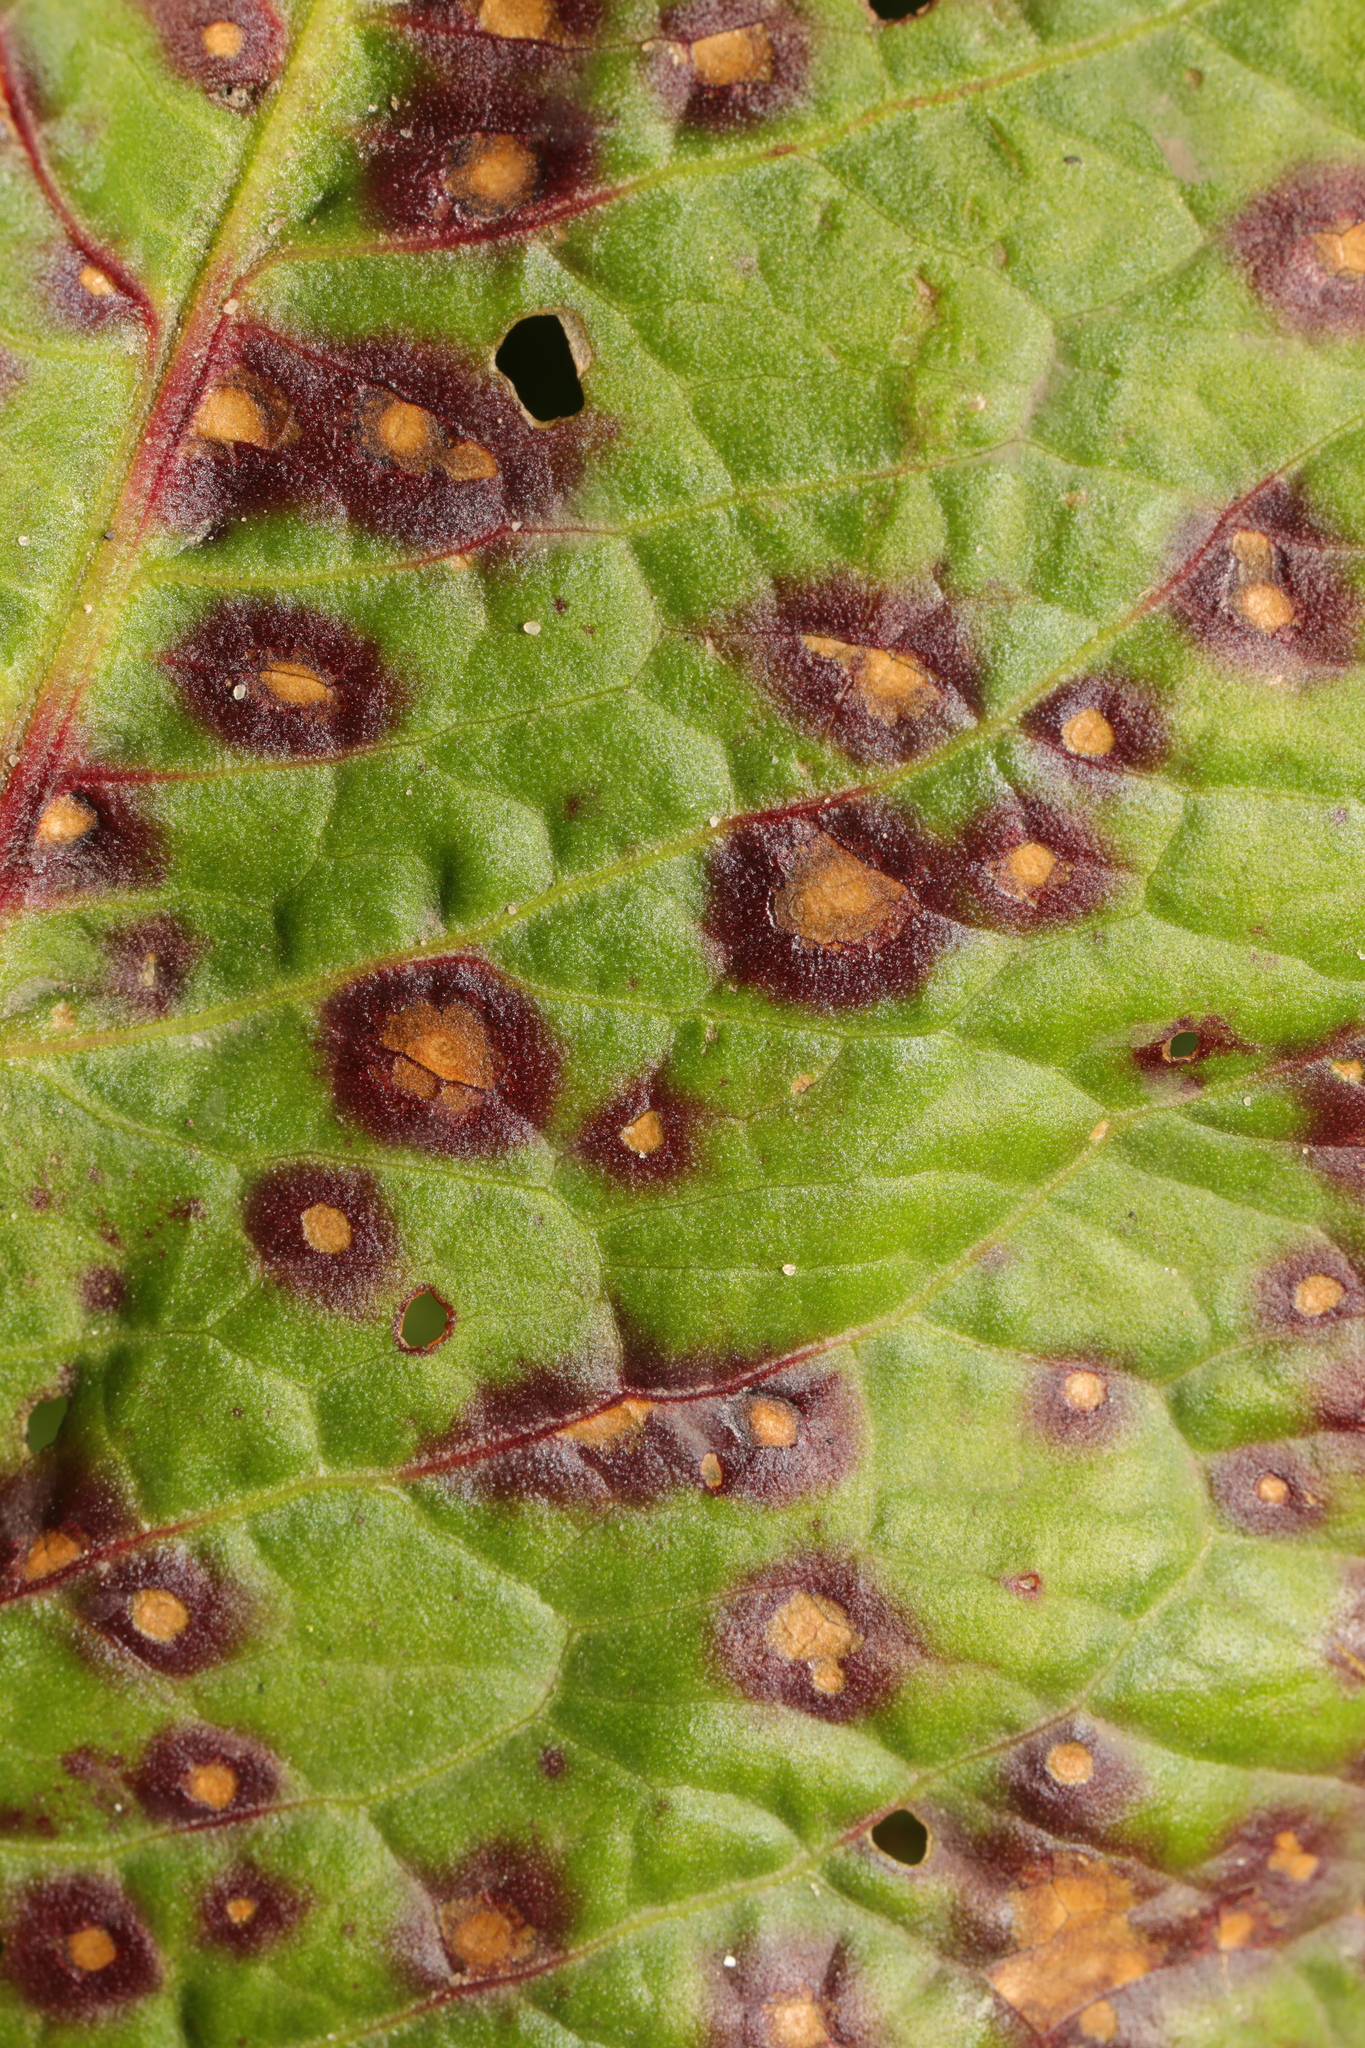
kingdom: Fungi
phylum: Ascomycota
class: Dothideomycetes
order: Mycosphaerellales
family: Mycosphaerellaceae
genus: Ramularia
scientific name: Ramularia rubella
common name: Red dock spot
